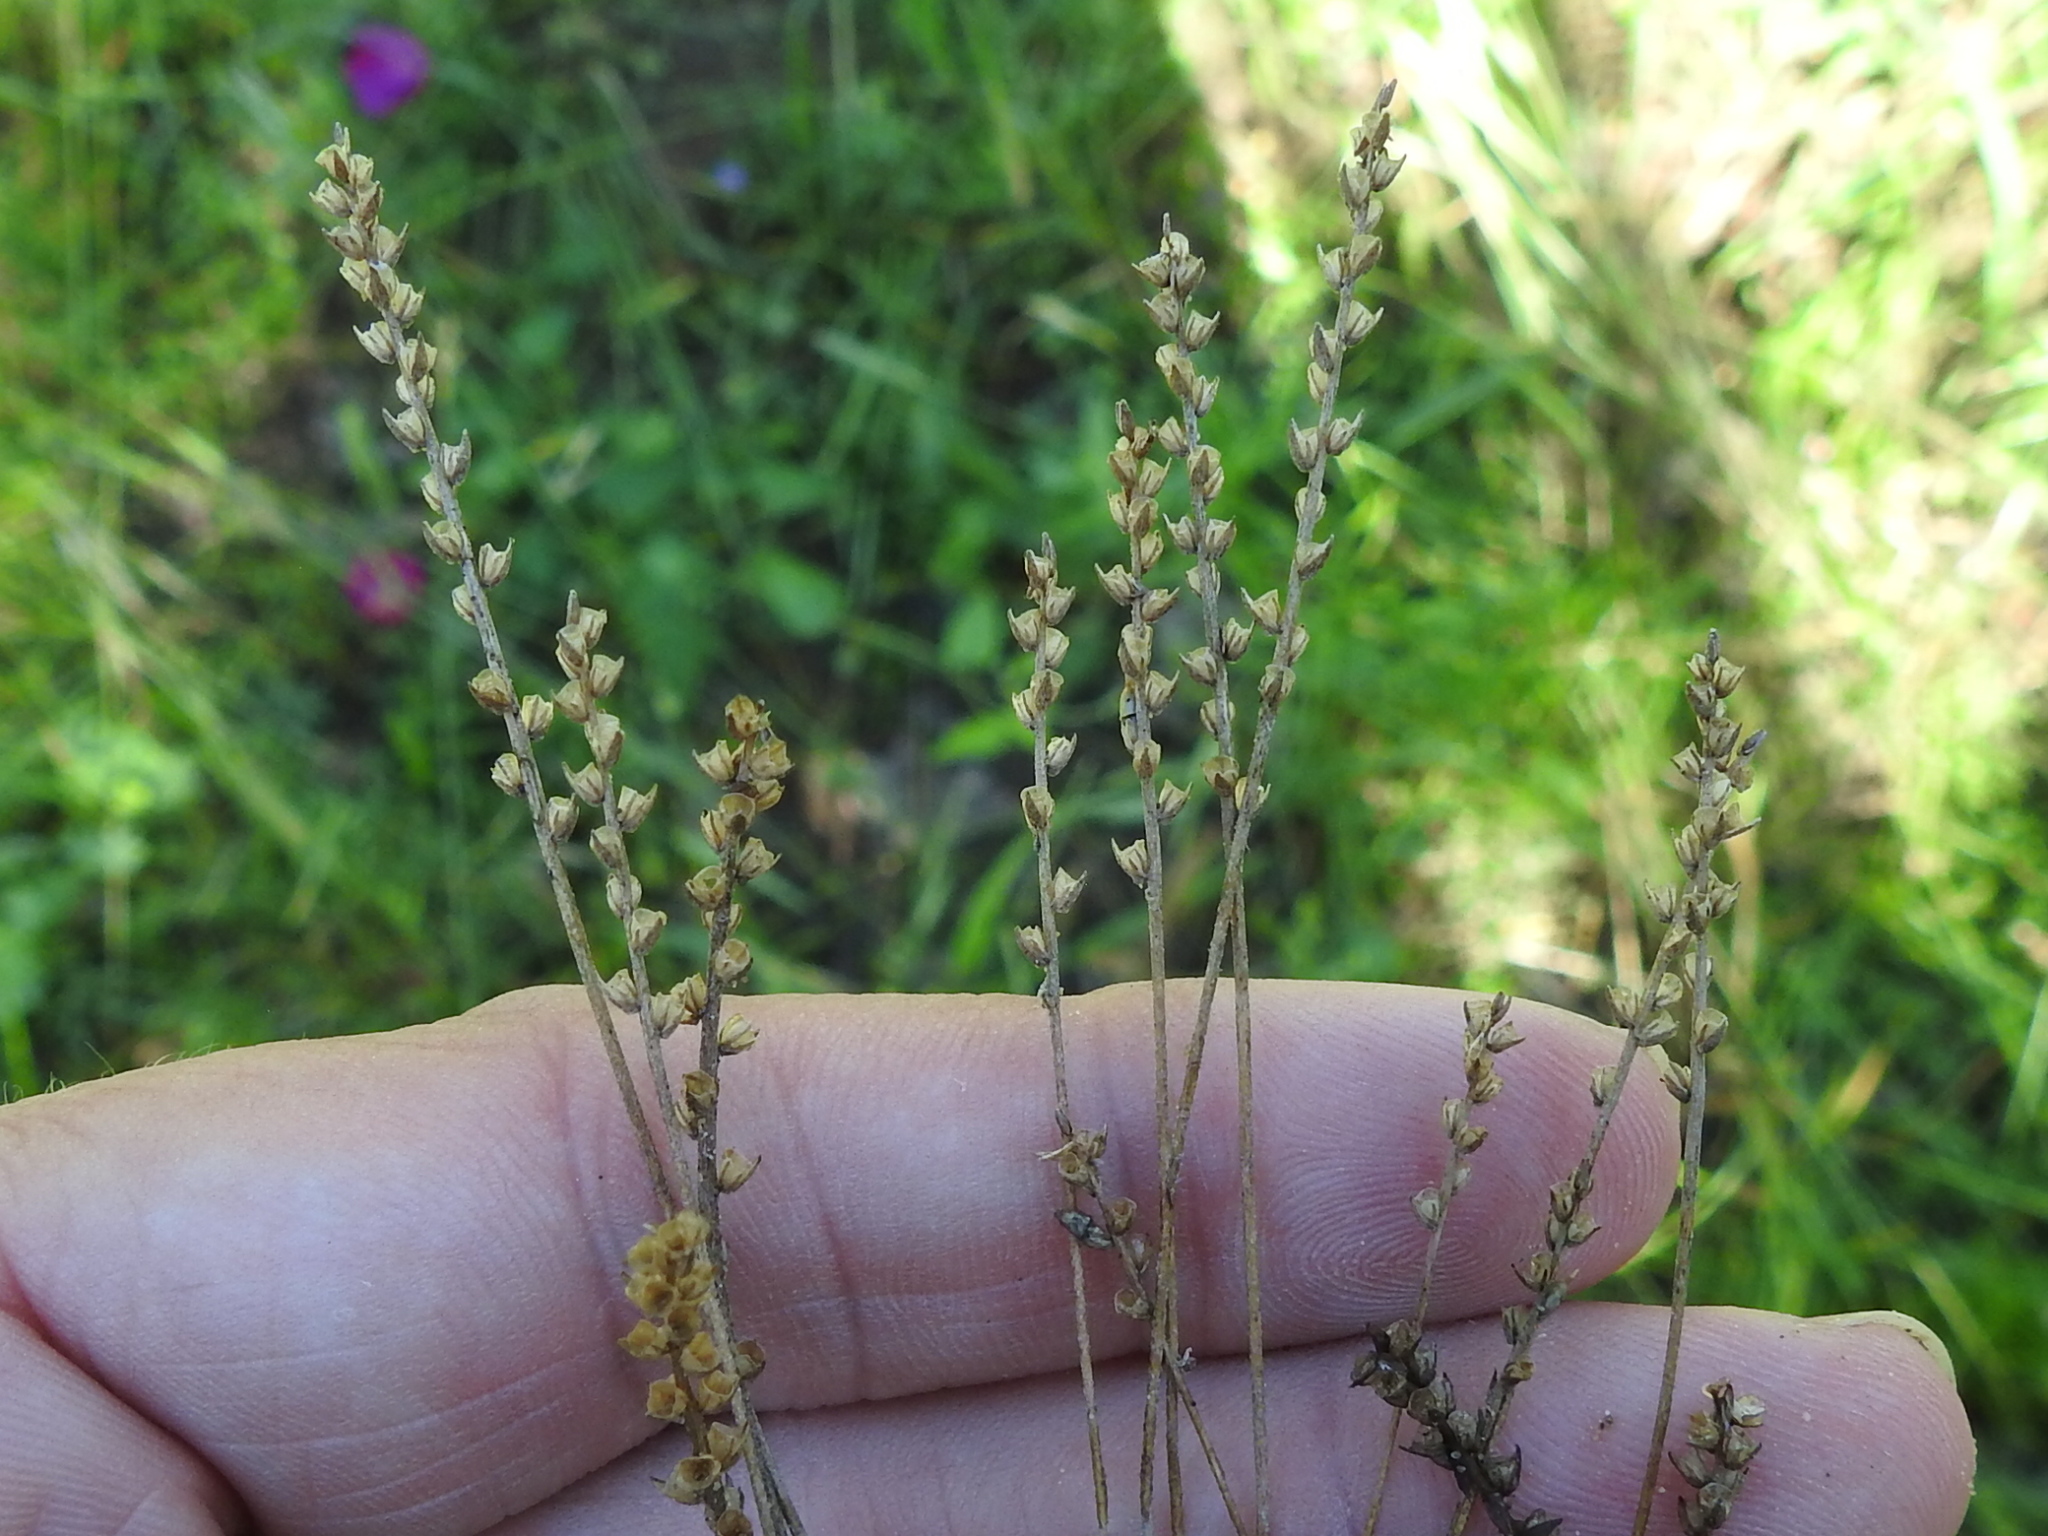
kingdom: Plantae
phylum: Tracheophyta
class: Magnoliopsida
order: Lamiales
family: Plantaginaceae
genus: Plantago
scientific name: Plantago heterophylla
